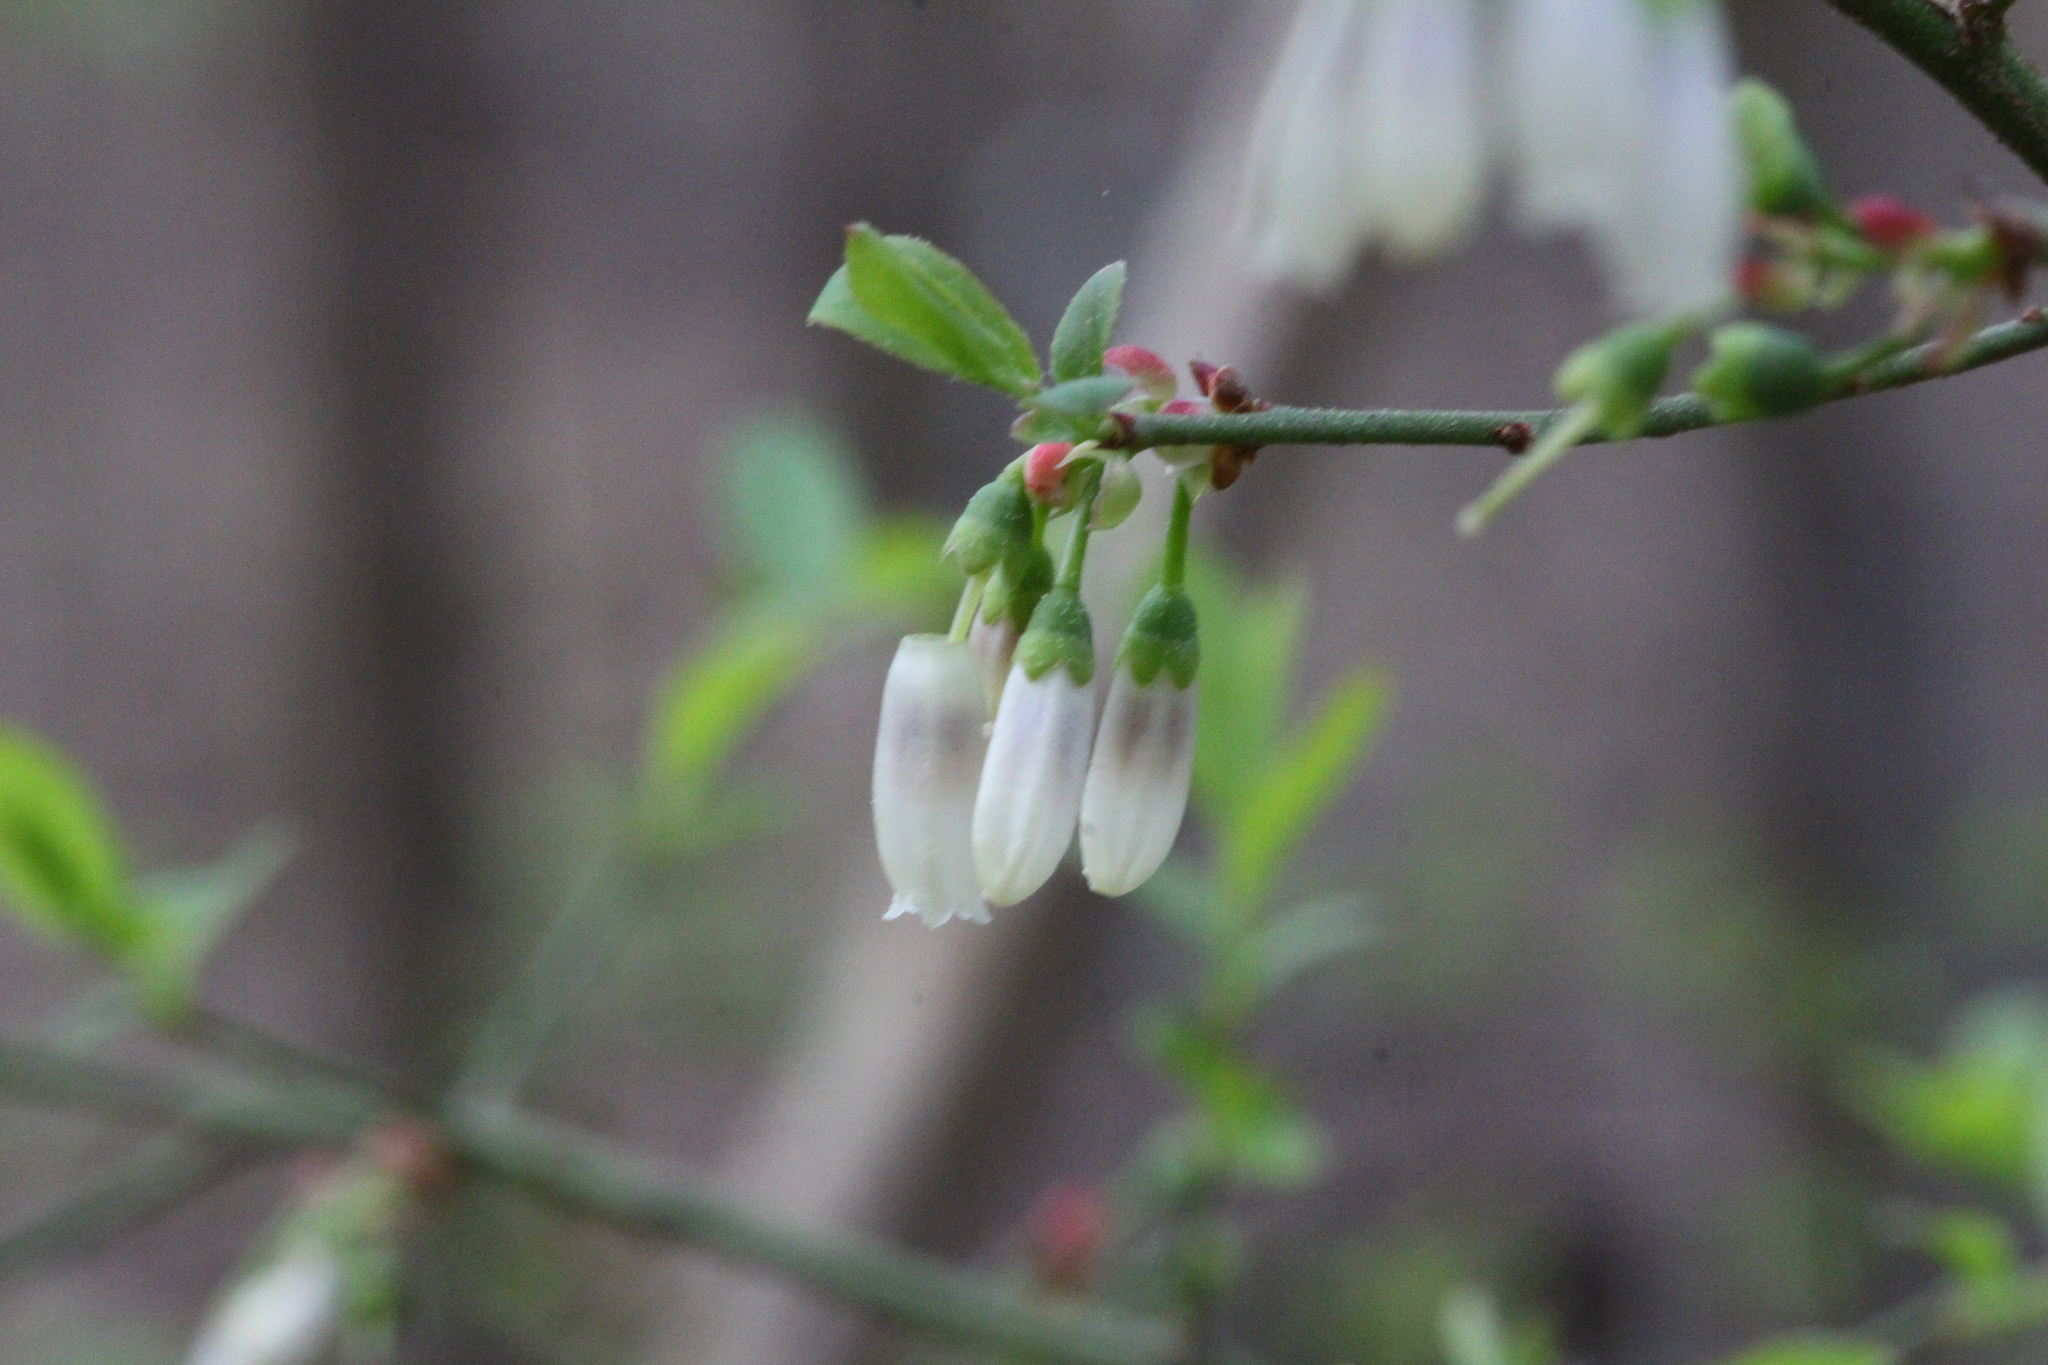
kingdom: Plantae
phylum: Tracheophyta
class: Magnoliopsida
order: Ericales
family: Ericaceae
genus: Vaccinium
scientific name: Vaccinium corymbosum
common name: Blueberry
